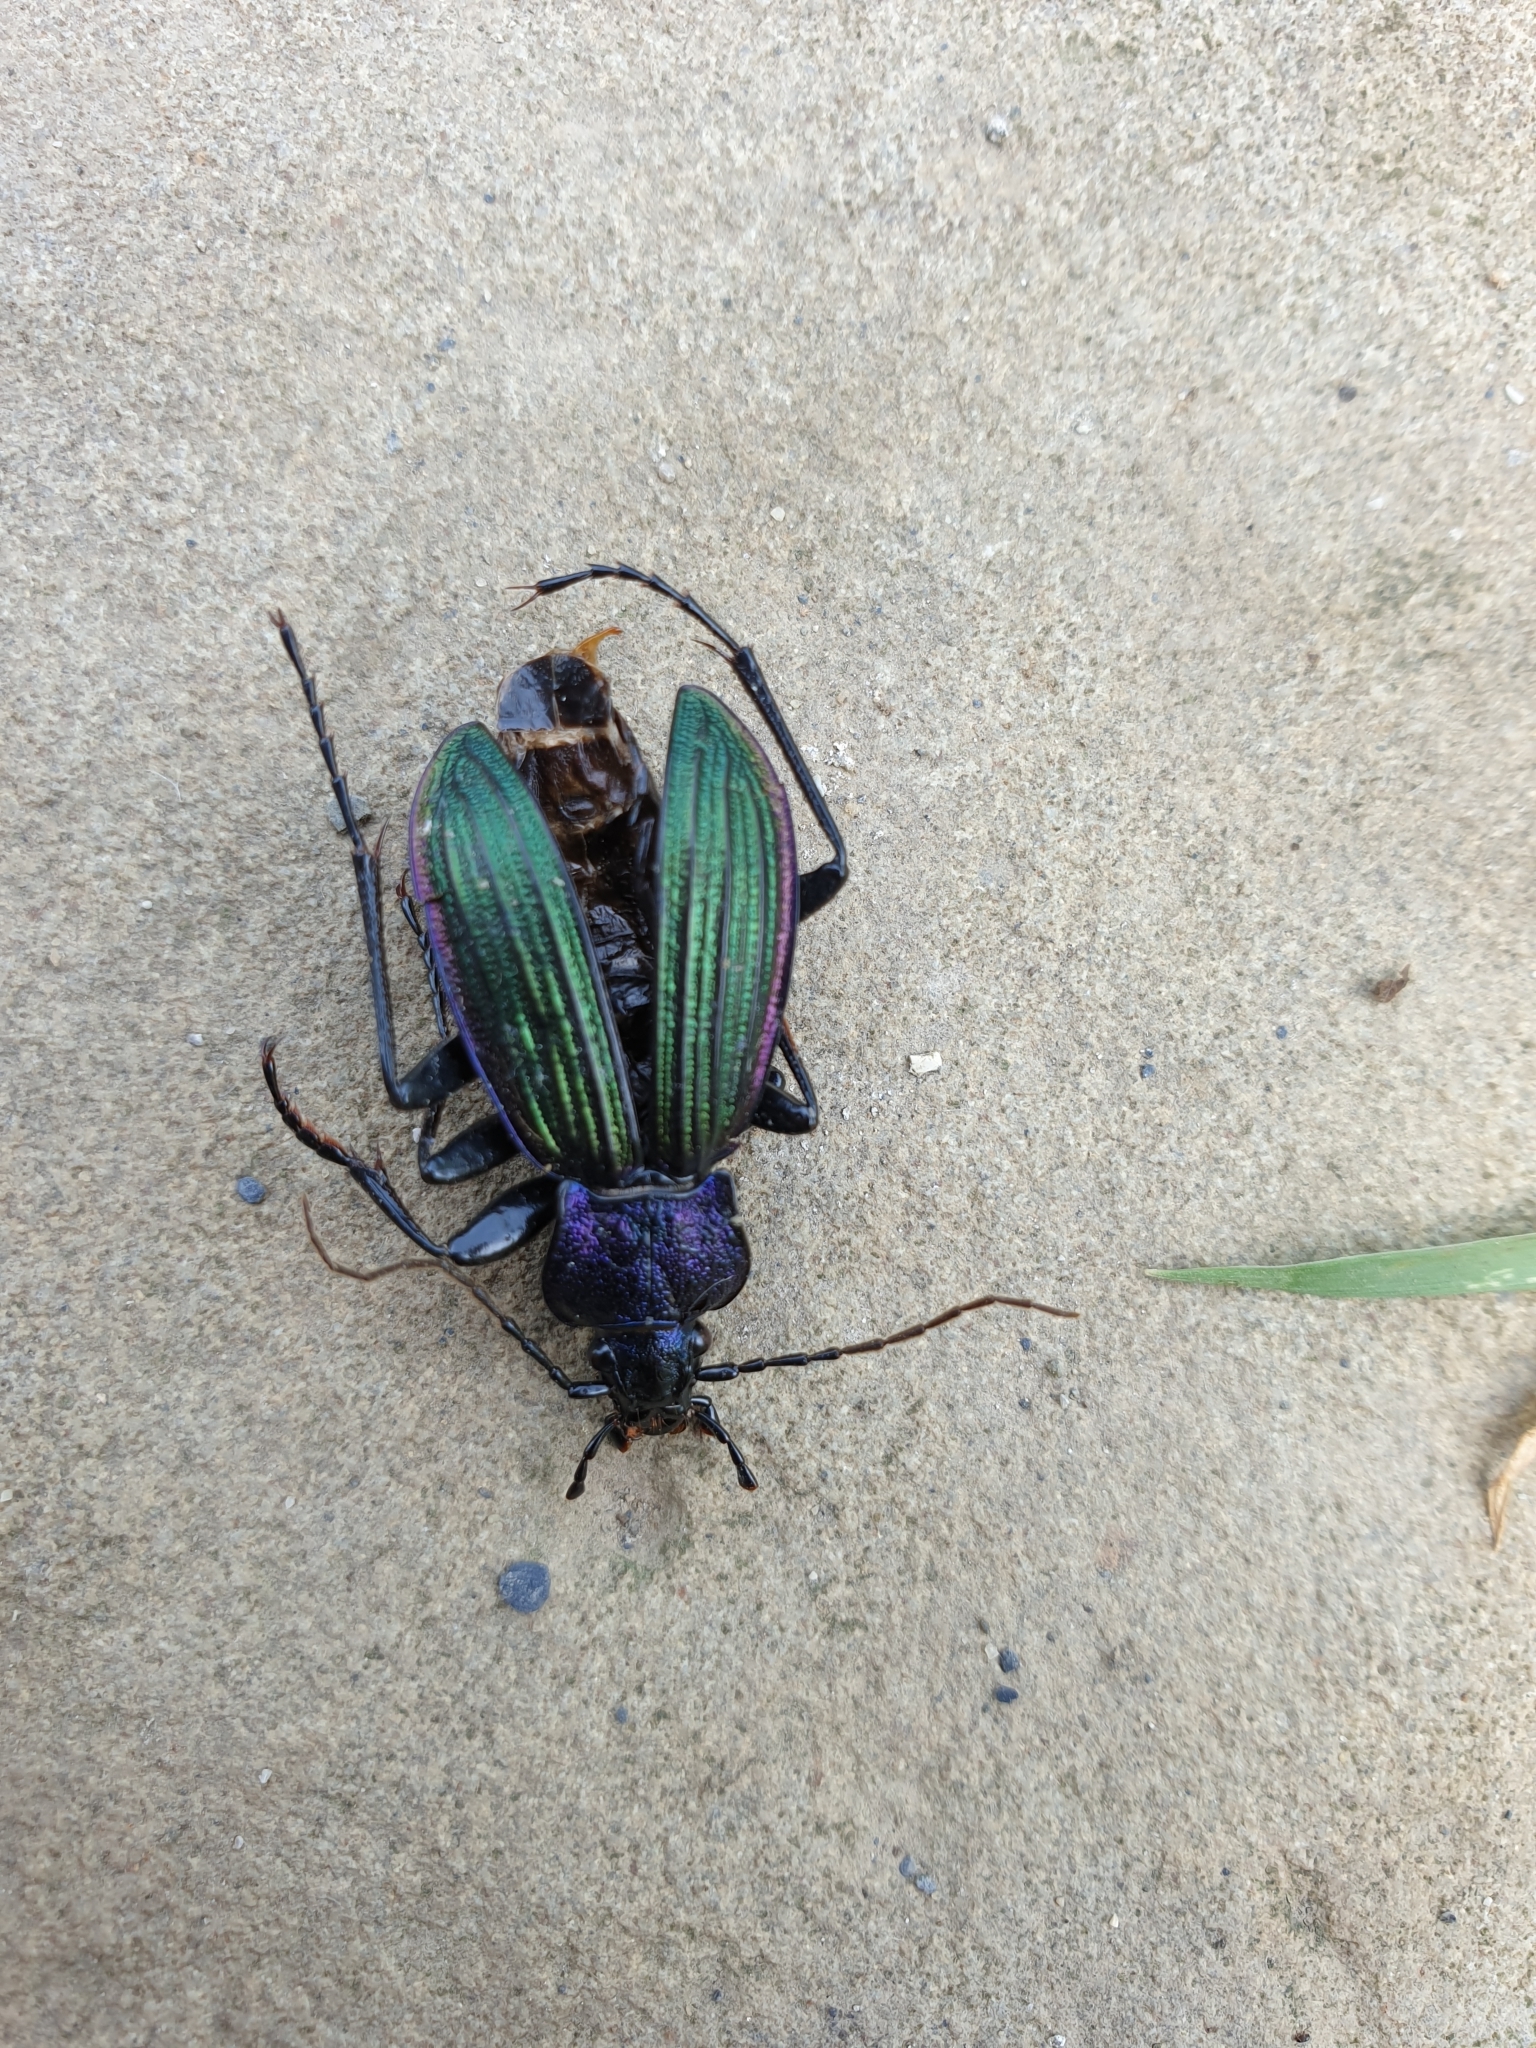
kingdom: Animalia
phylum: Arthropoda
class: Insecta
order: Coleoptera
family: Carabidae
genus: Carabus
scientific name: Carabus exaratus
